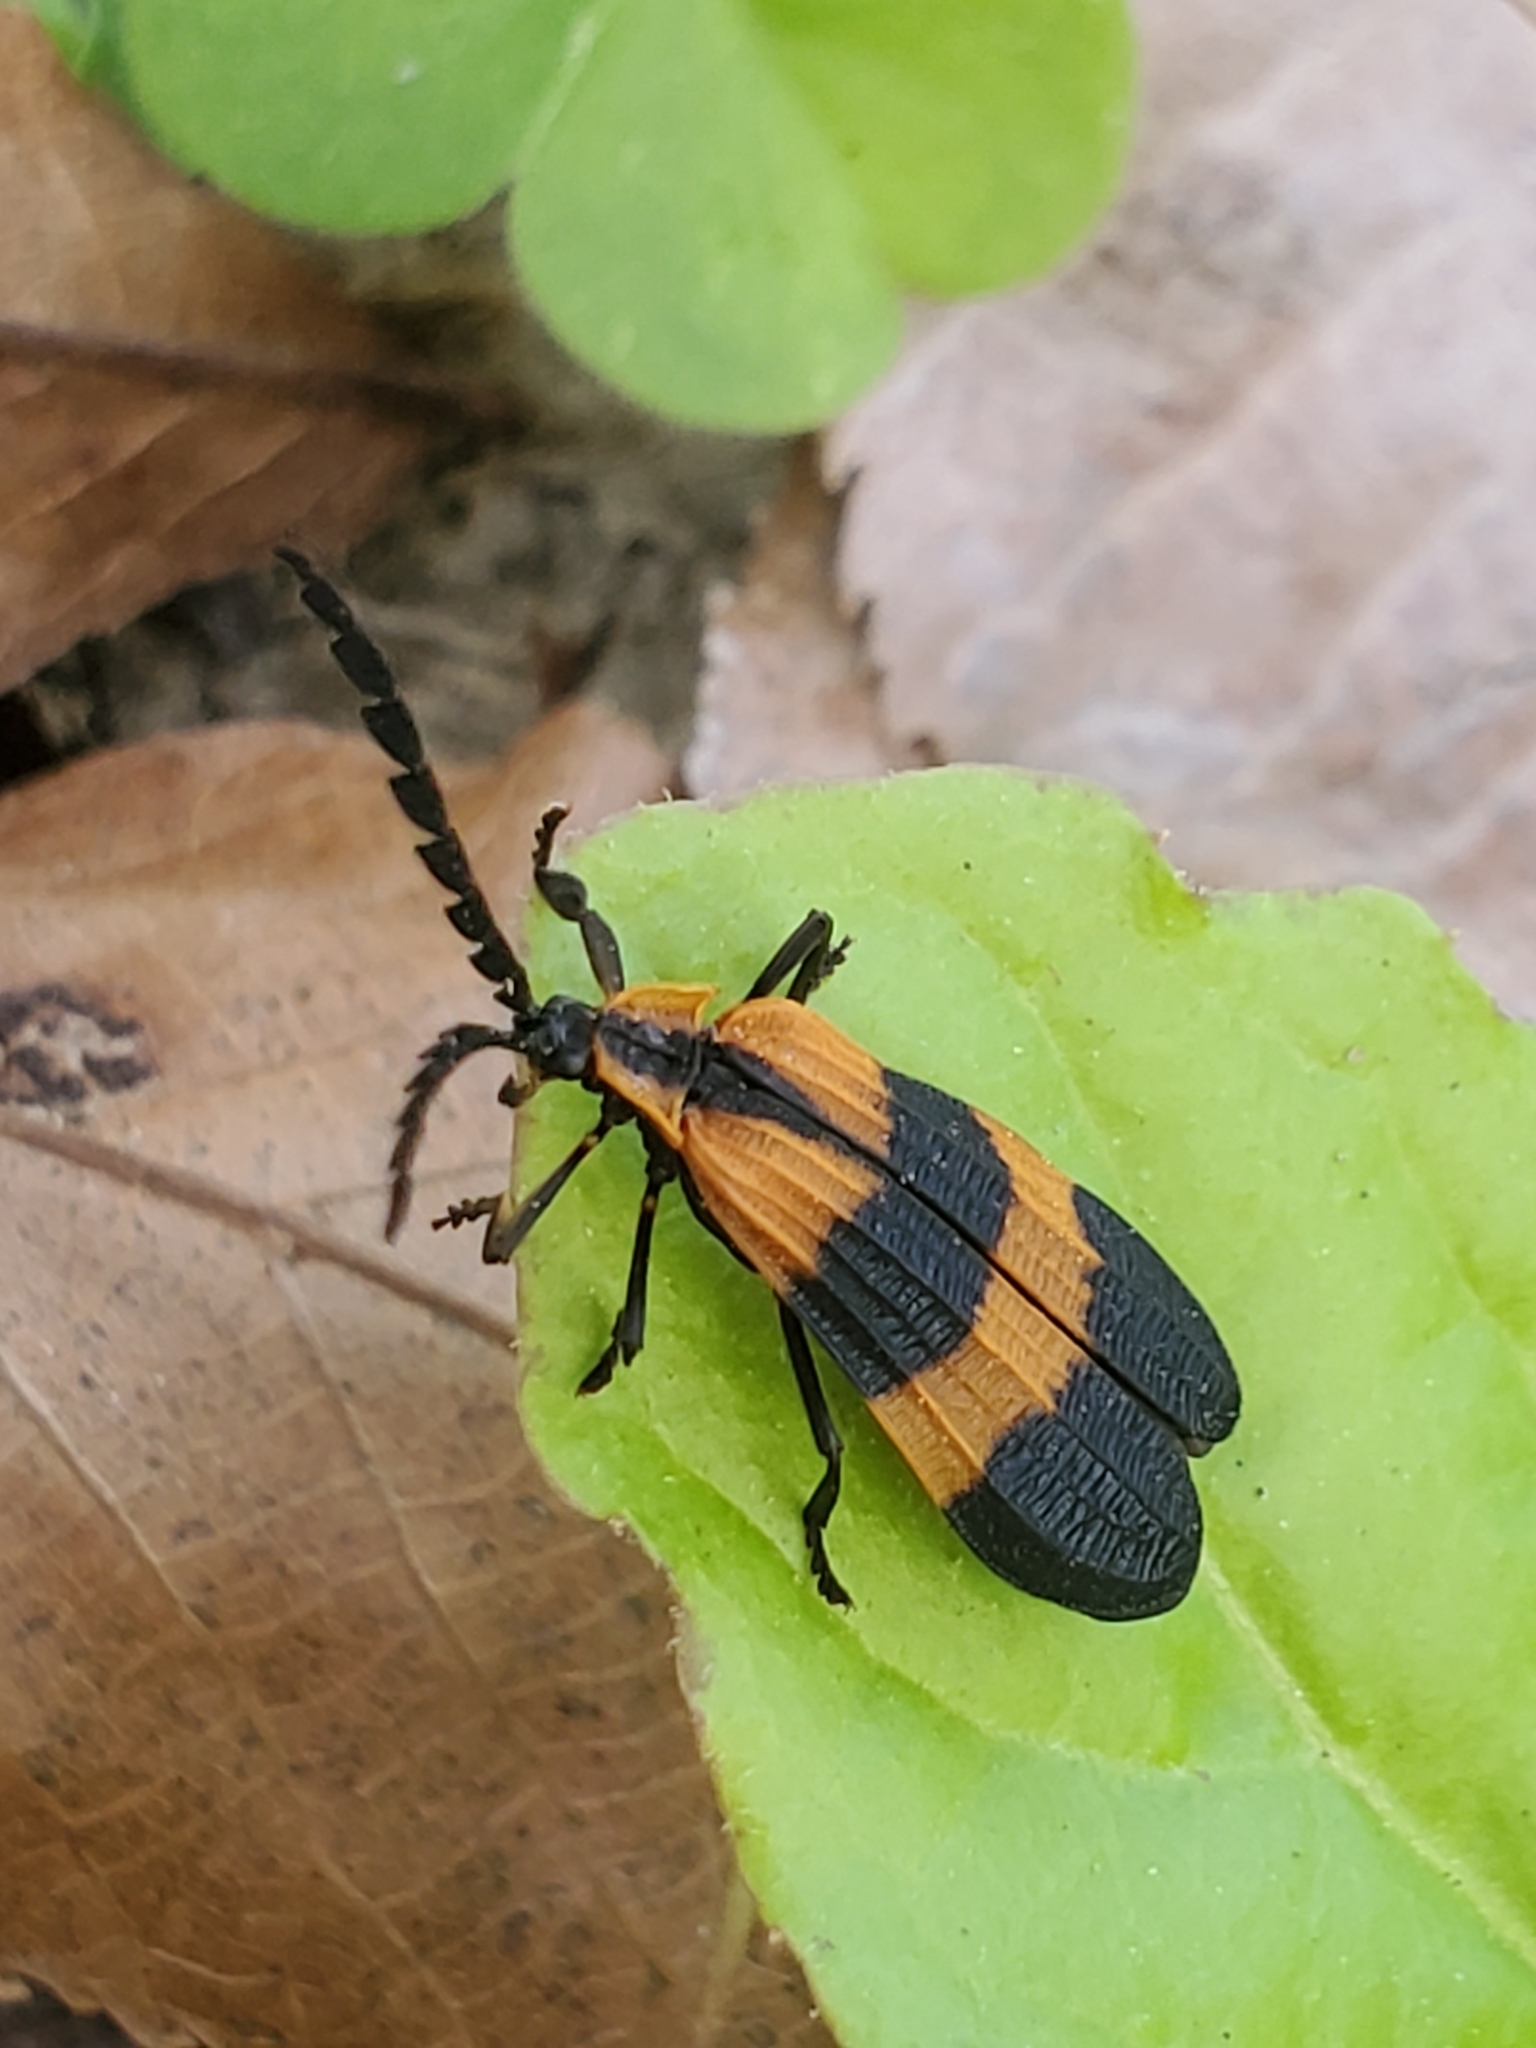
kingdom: Animalia
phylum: Arthropoda
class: Insecta
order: Coleoptera
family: Lycidae
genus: Calopteron
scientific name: Calopteron discrepans
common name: Banded net-winged beetle
